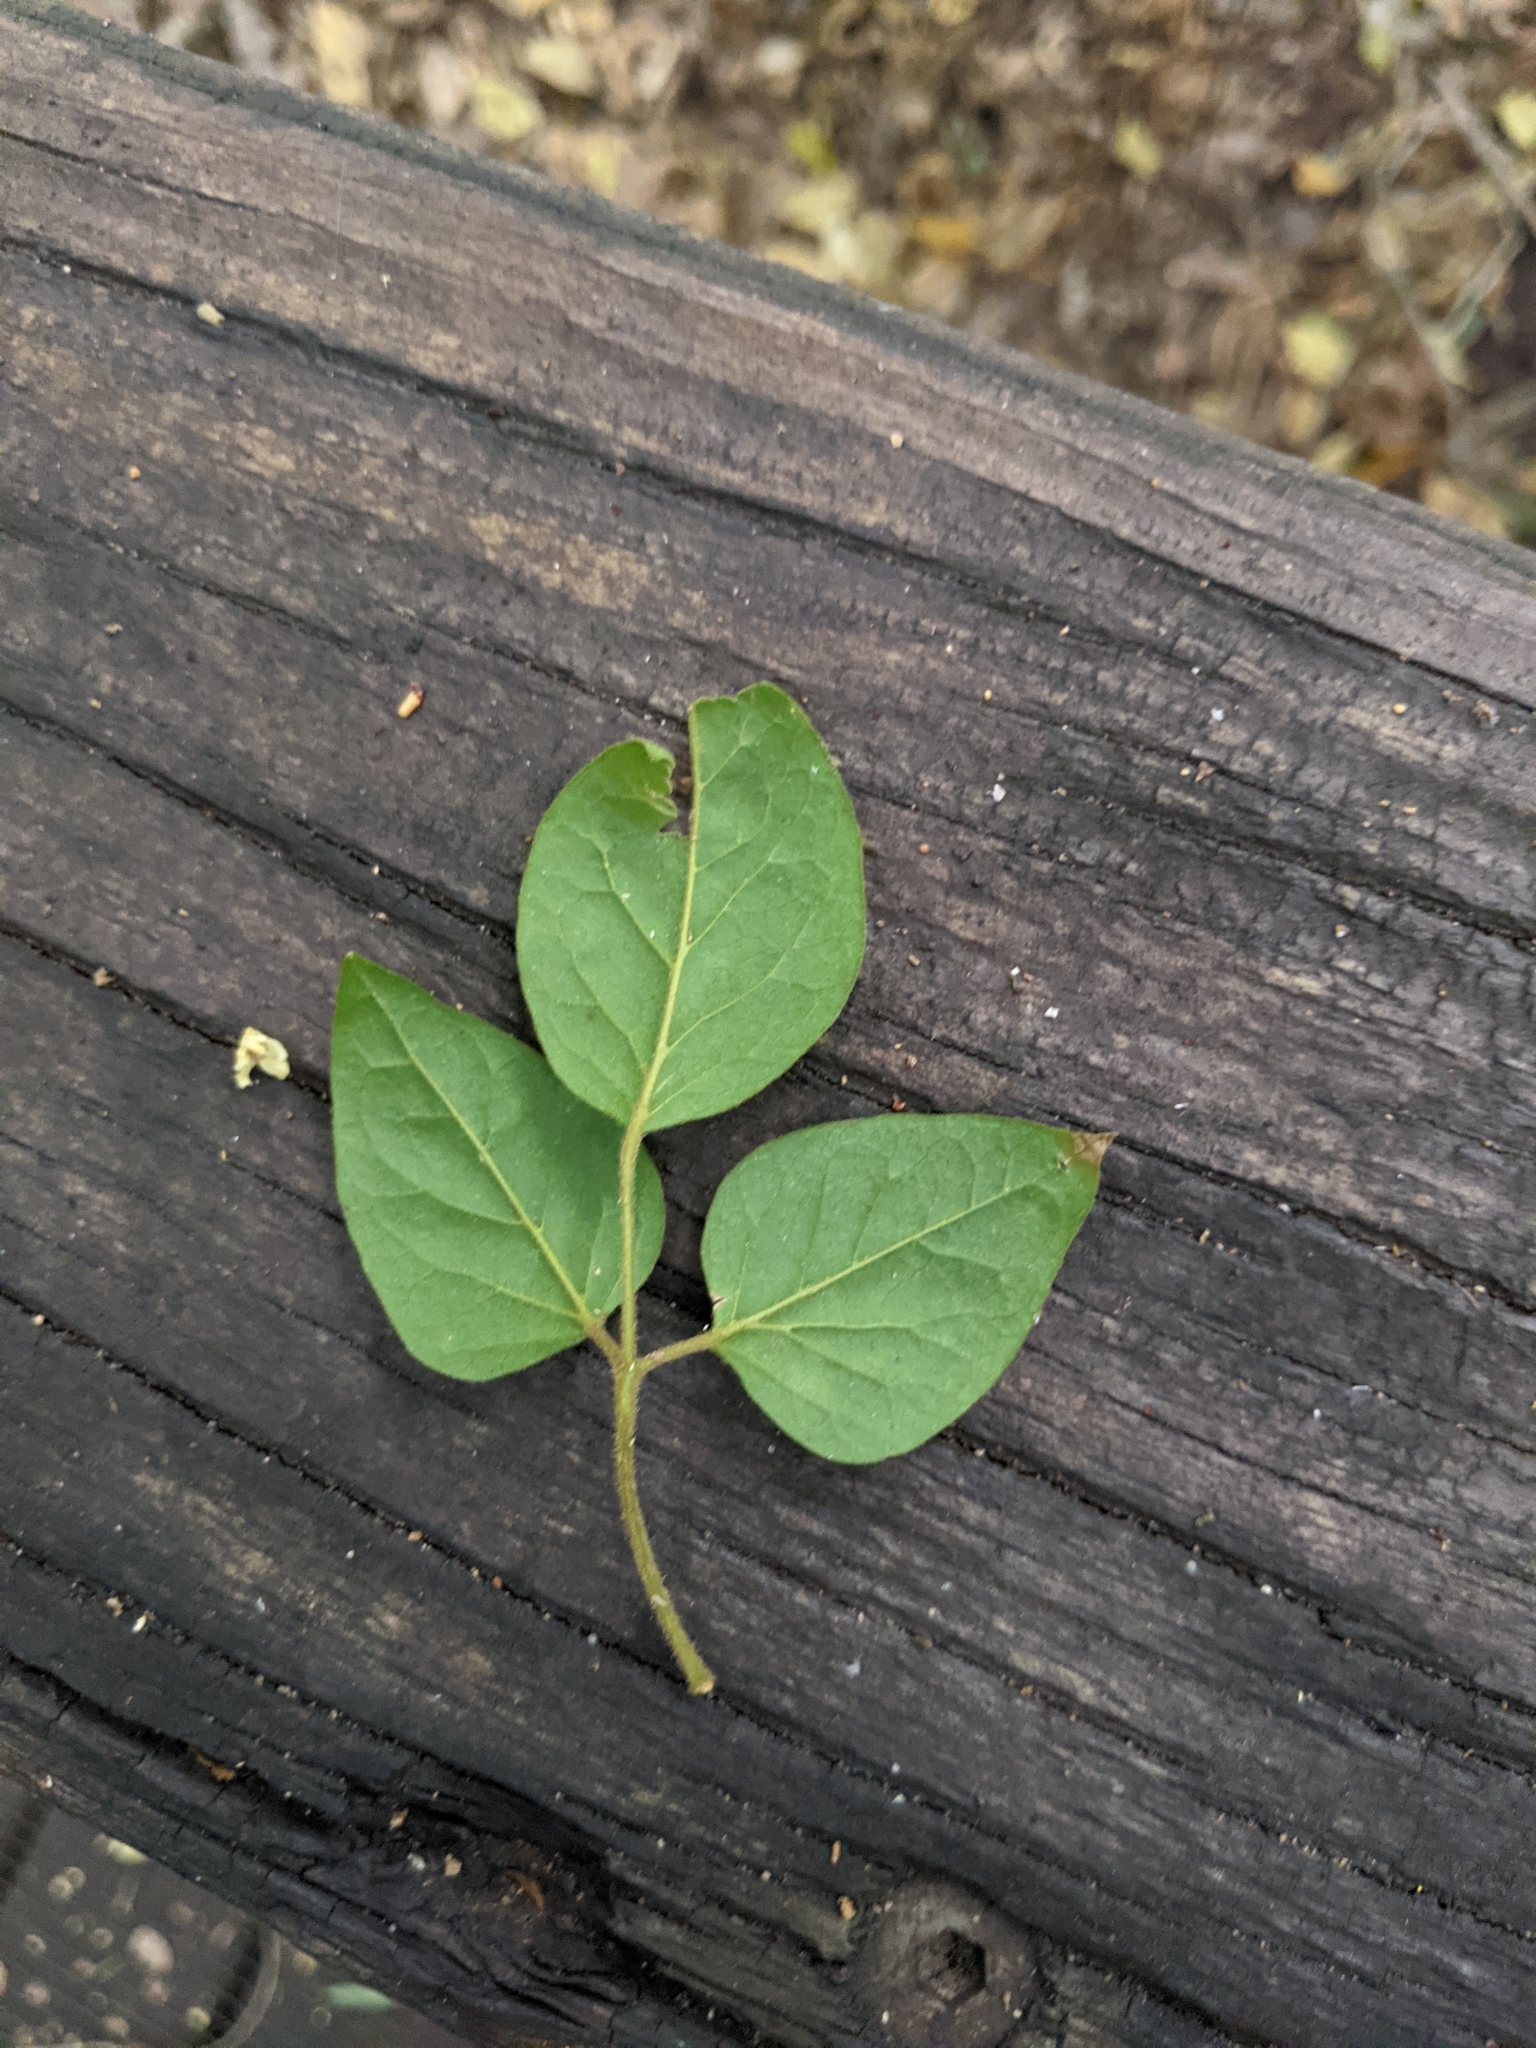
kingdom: Plantae
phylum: Tracheophyta
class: Magnoliopsida
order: Lamiales
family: Oleaceae
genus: Jasminum
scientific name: Jasminum dallachyi
